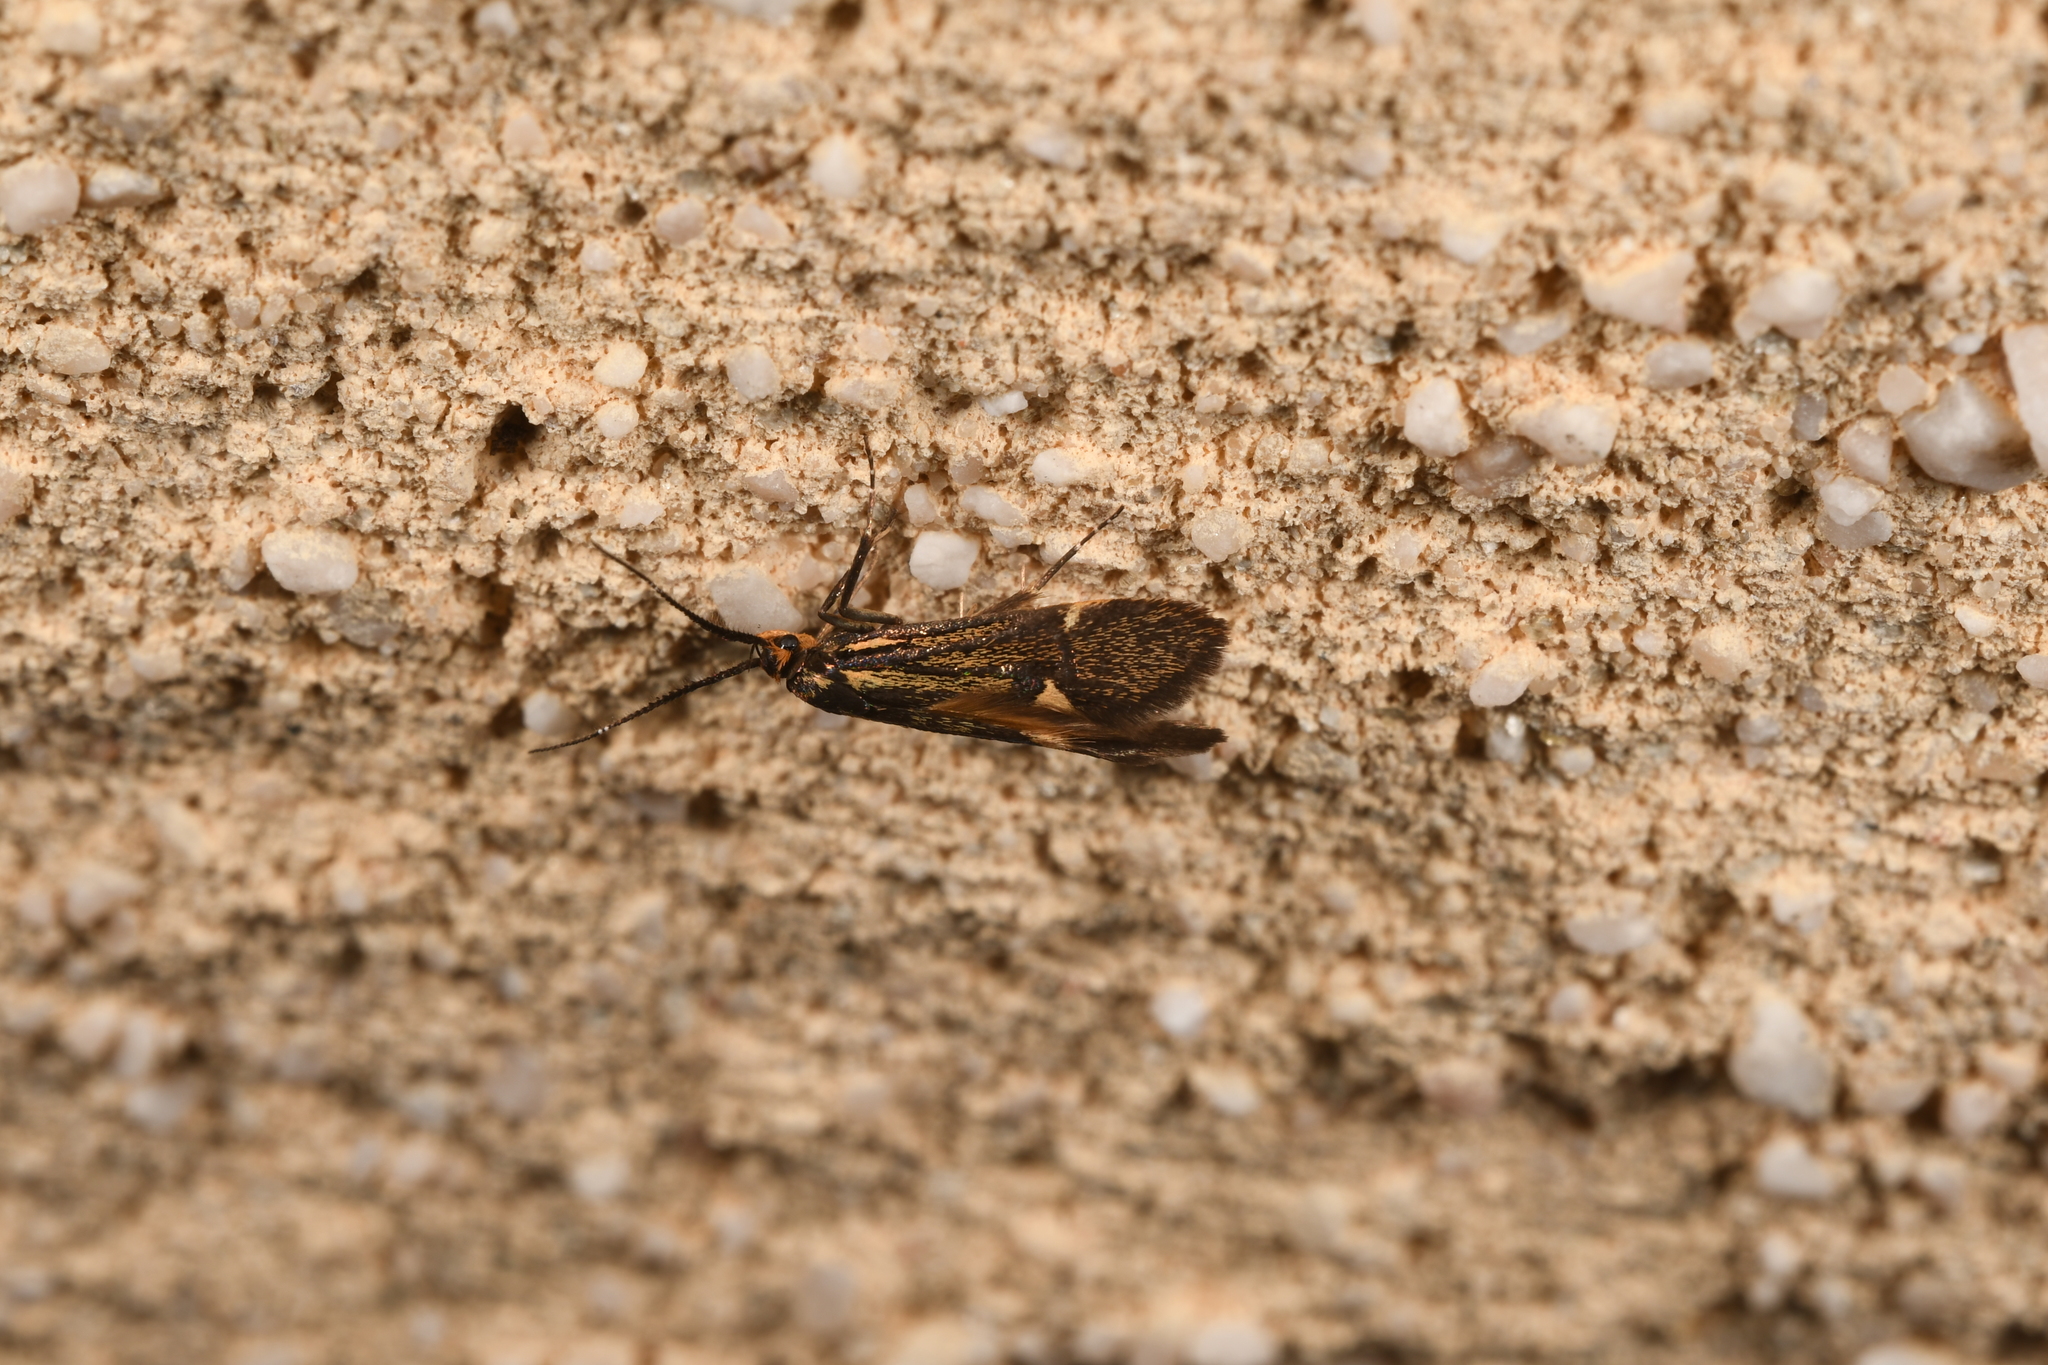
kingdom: Animalia
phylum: Arthropoda
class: Insecta
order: Lepidoptera
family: Oecophoridae
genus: Dafa
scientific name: Dafa Esperia sulphurella
